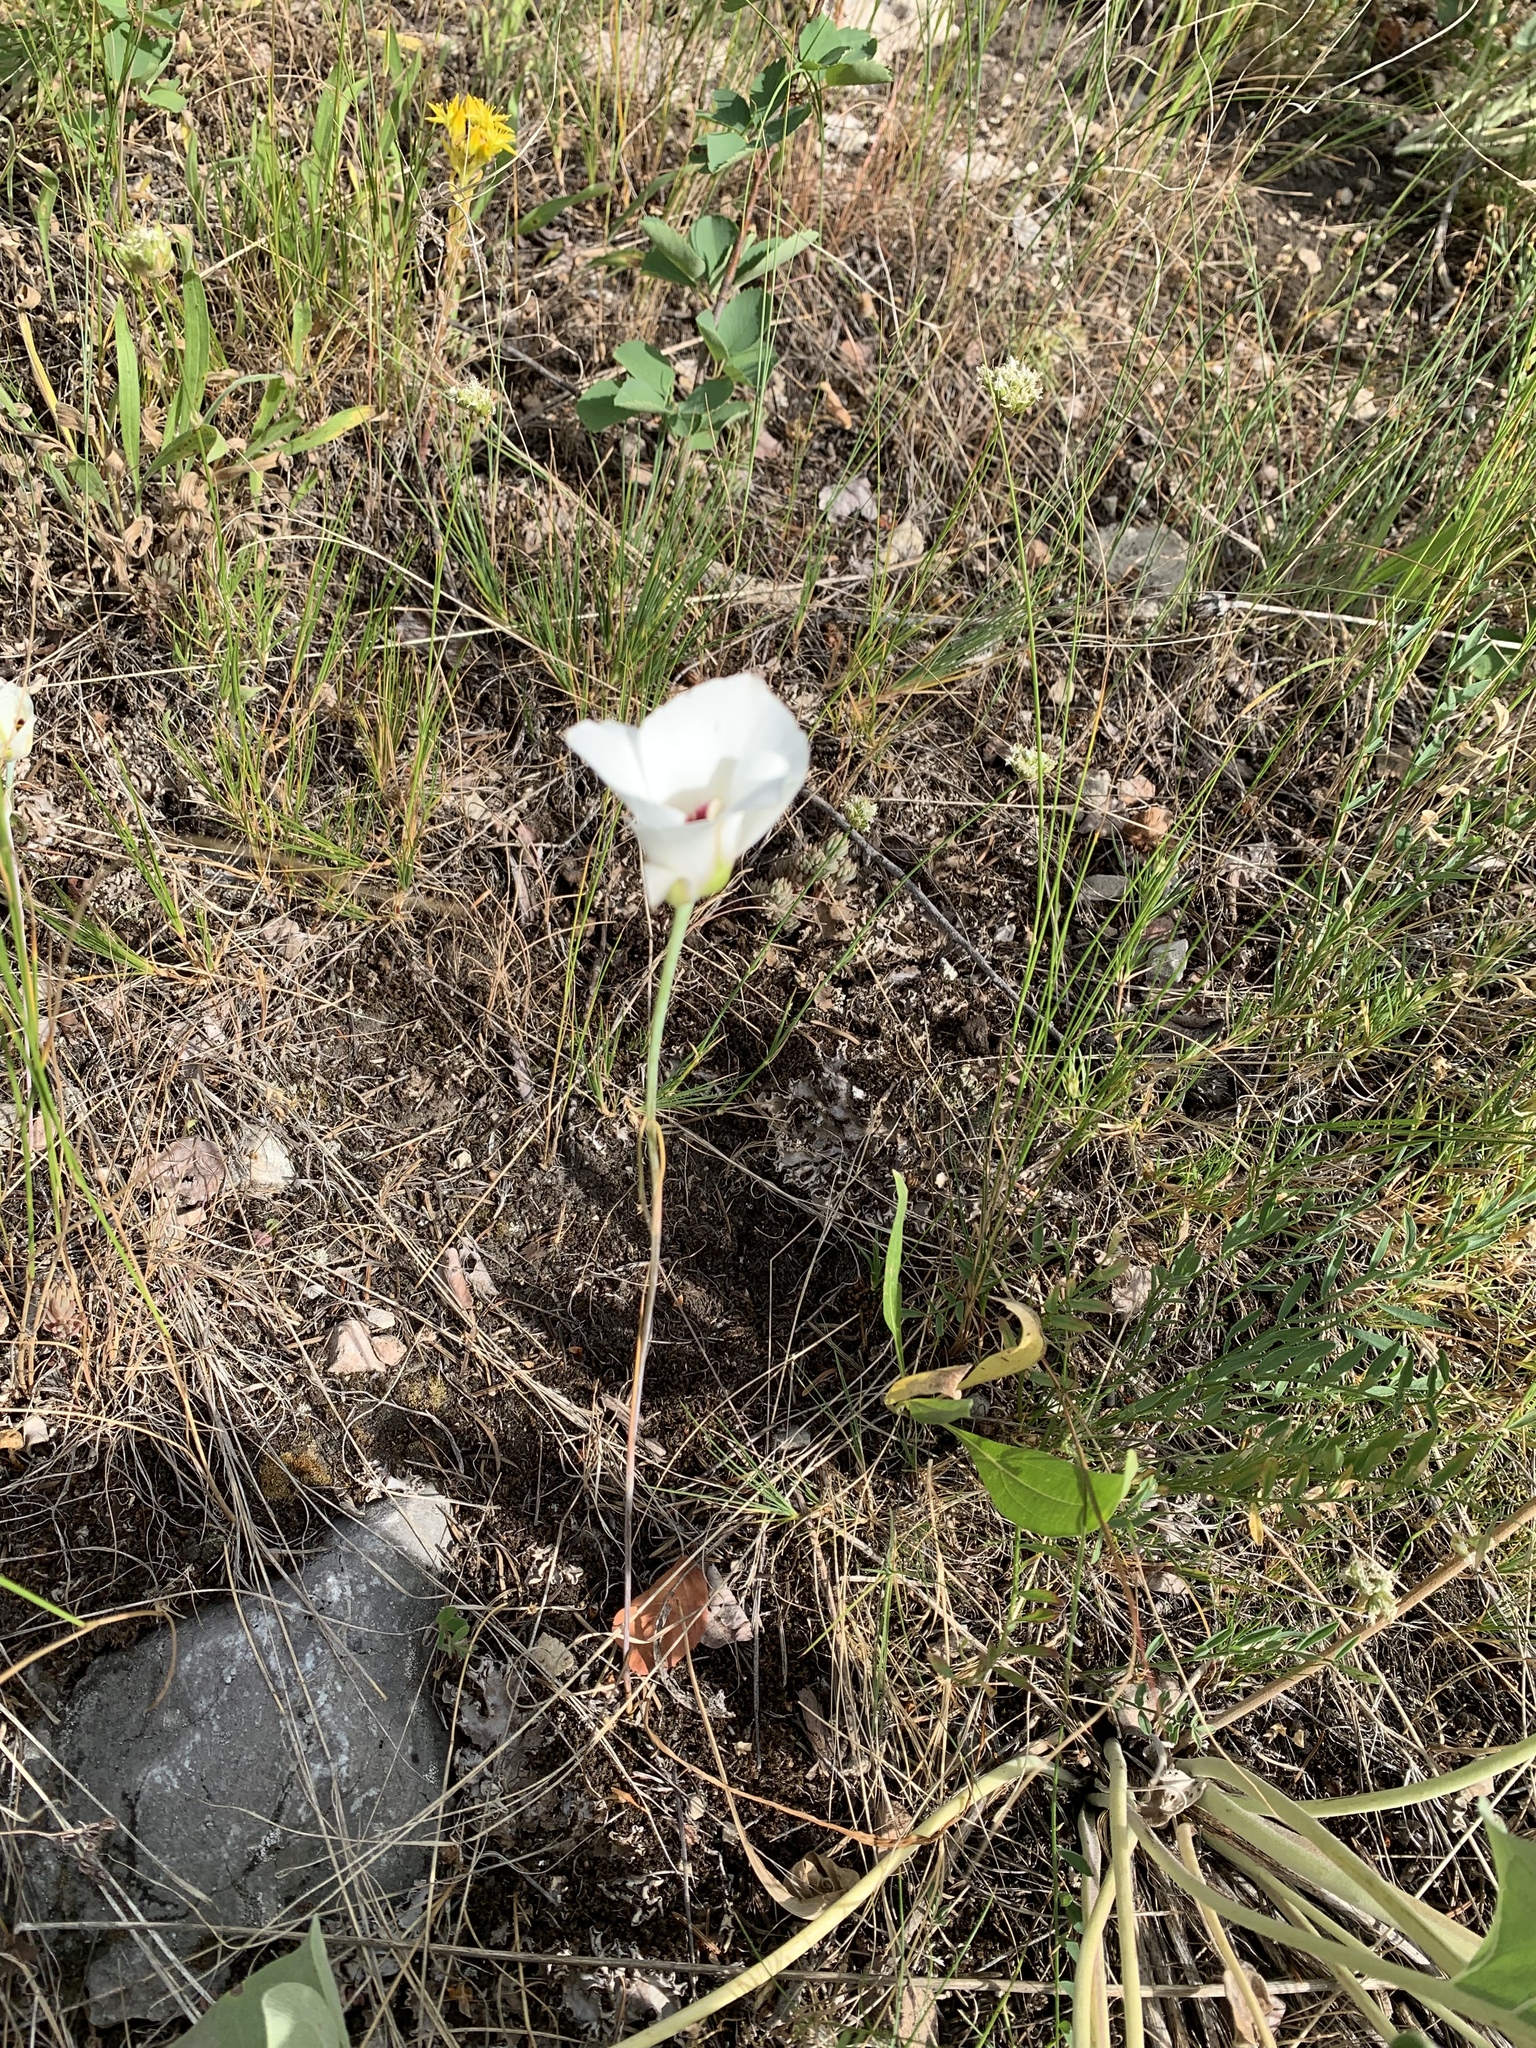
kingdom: Plantae
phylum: Tracheophyta
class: Liliopsida
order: Liliales
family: Liliaceae
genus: Calochortus
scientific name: Calochortus nuttallii
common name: Sego-lily
